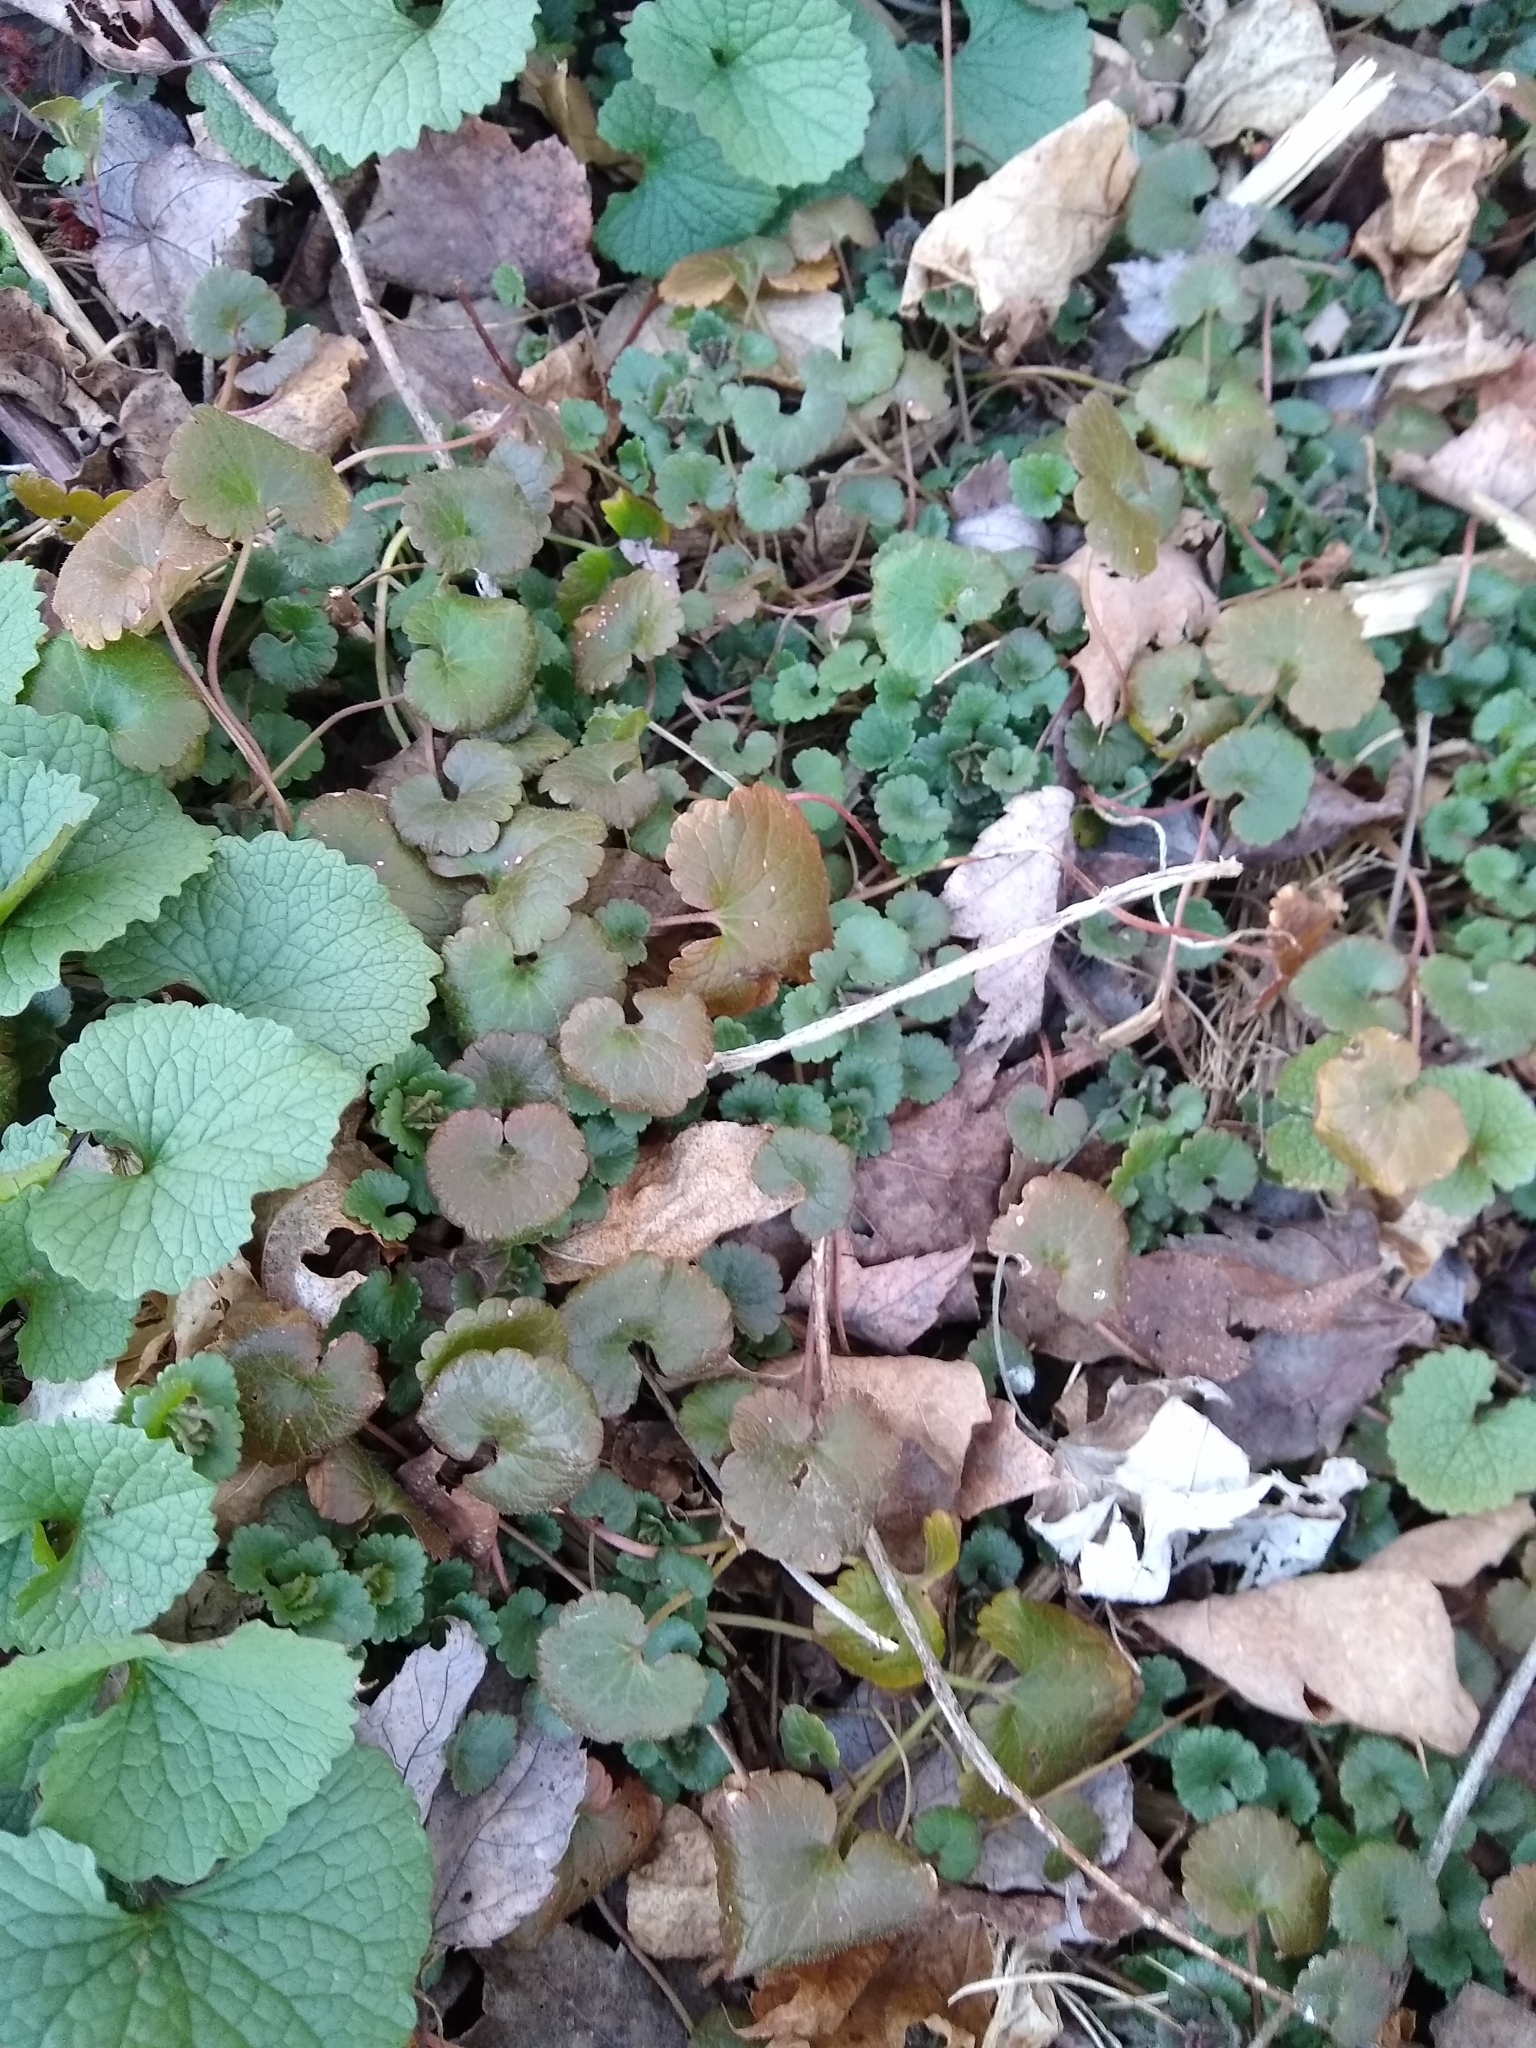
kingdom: Plantae
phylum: Tracheophyta
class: Magnoliopsida
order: Lamiales
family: Lamiaceae
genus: Glechoma
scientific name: Glechoma hederacea
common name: Ground ivy
